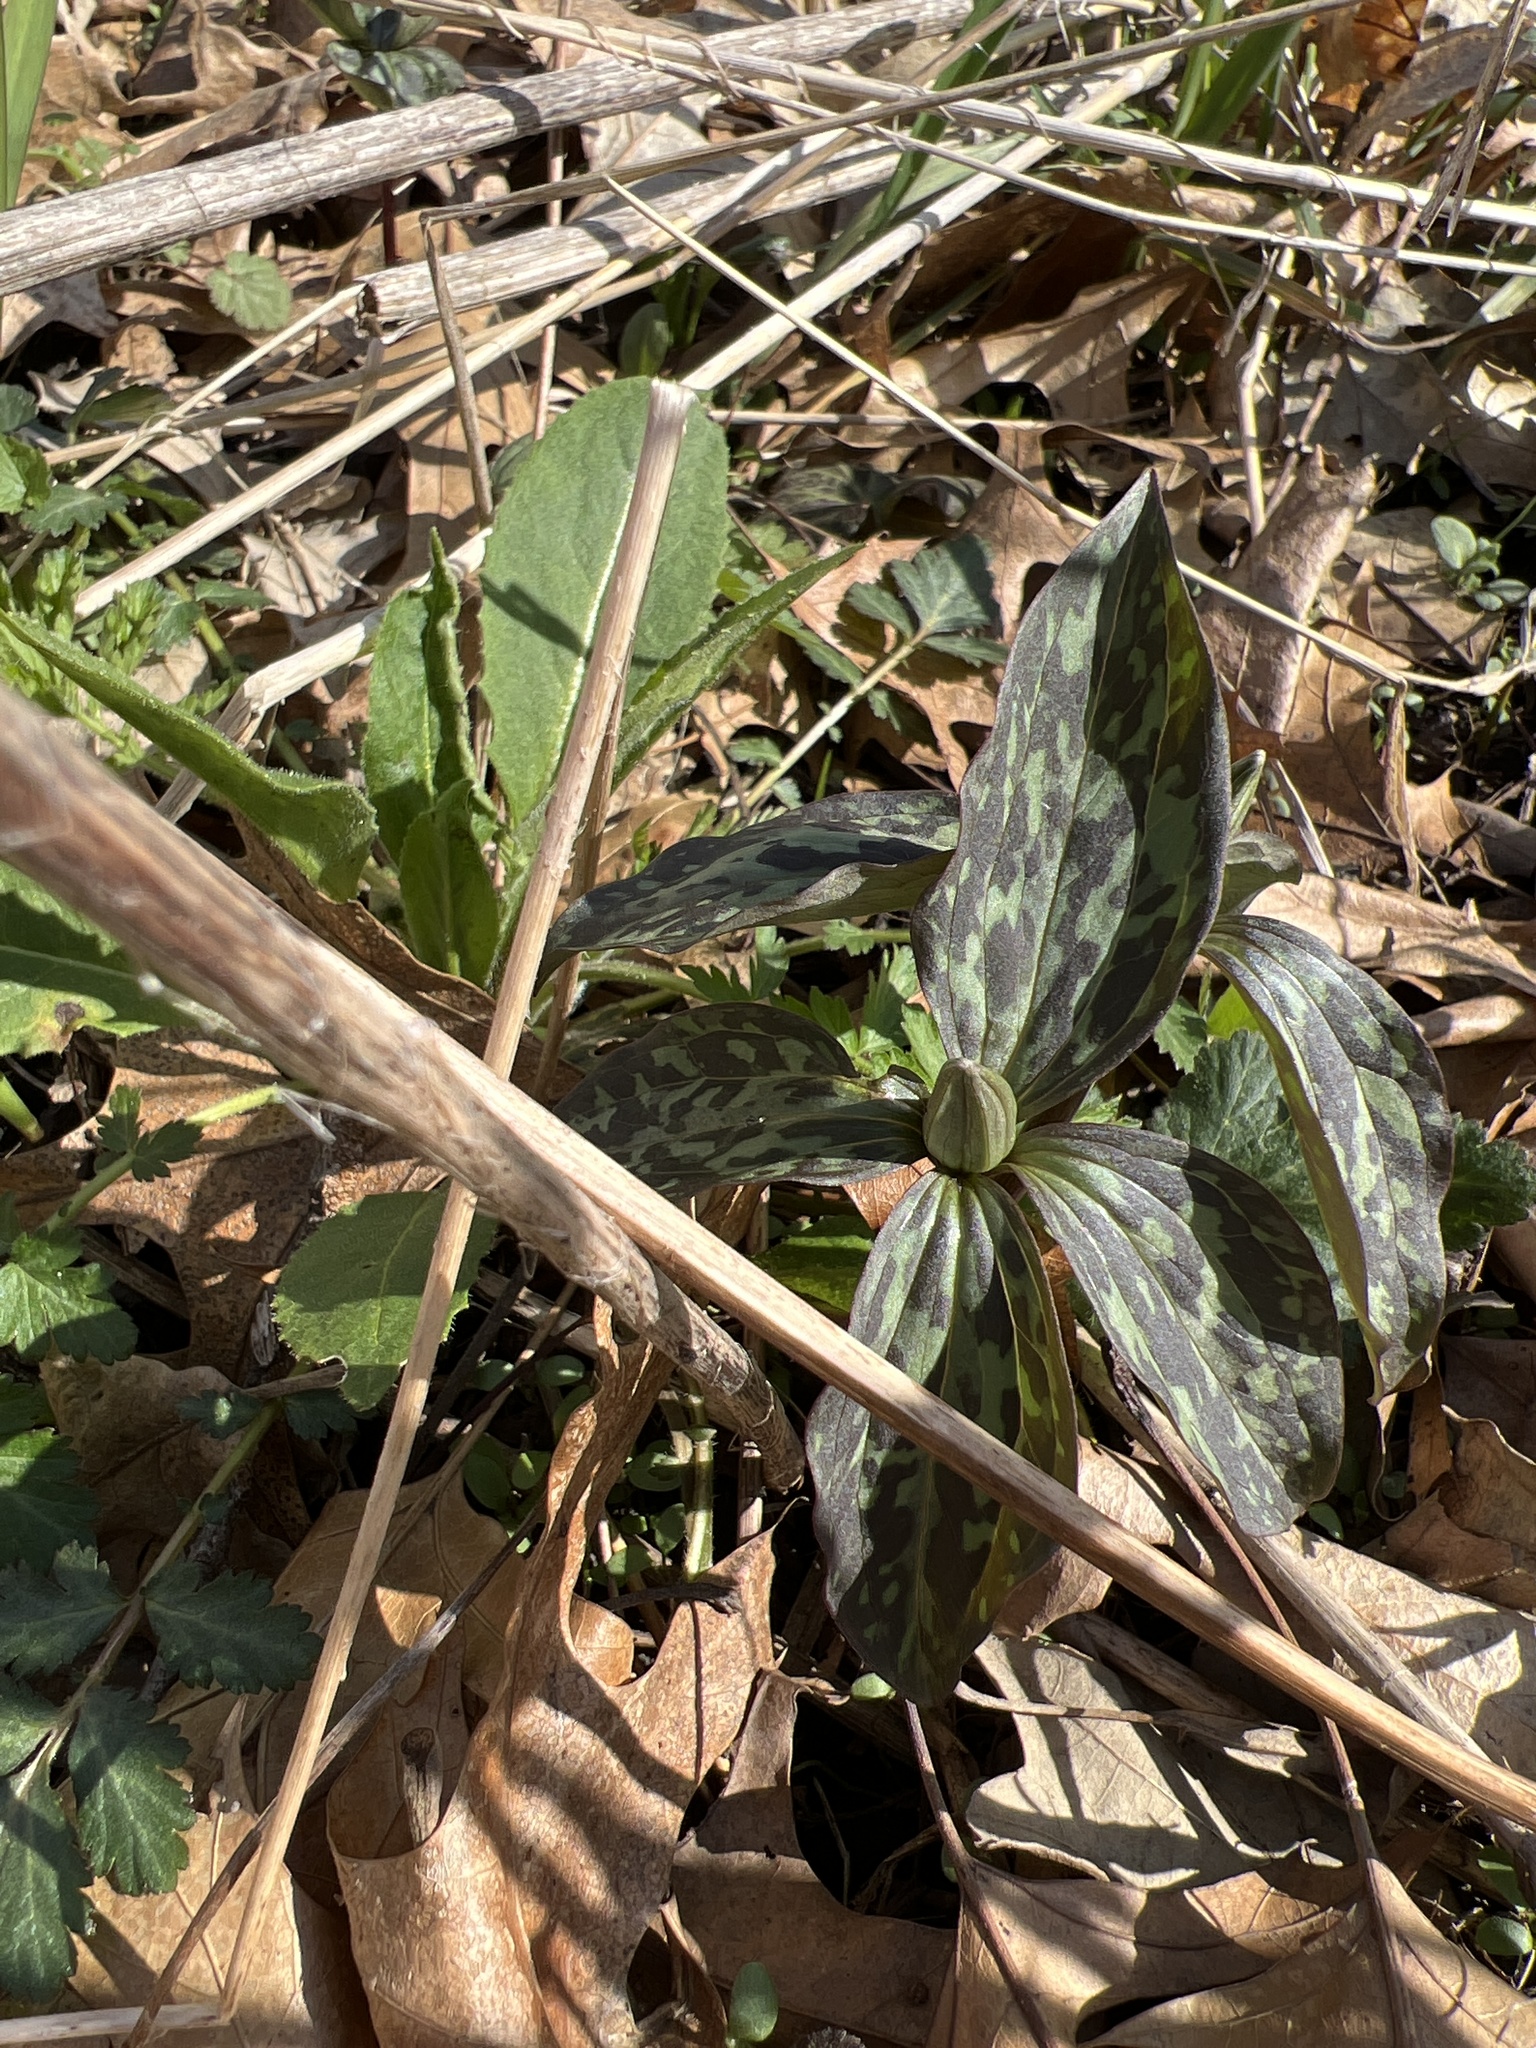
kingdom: Plantae
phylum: Tracheophyta
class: Liliopsida
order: Liliales
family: Melanthiaceae
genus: Trillium
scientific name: Trillium recurvatum
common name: Bloody butcher
